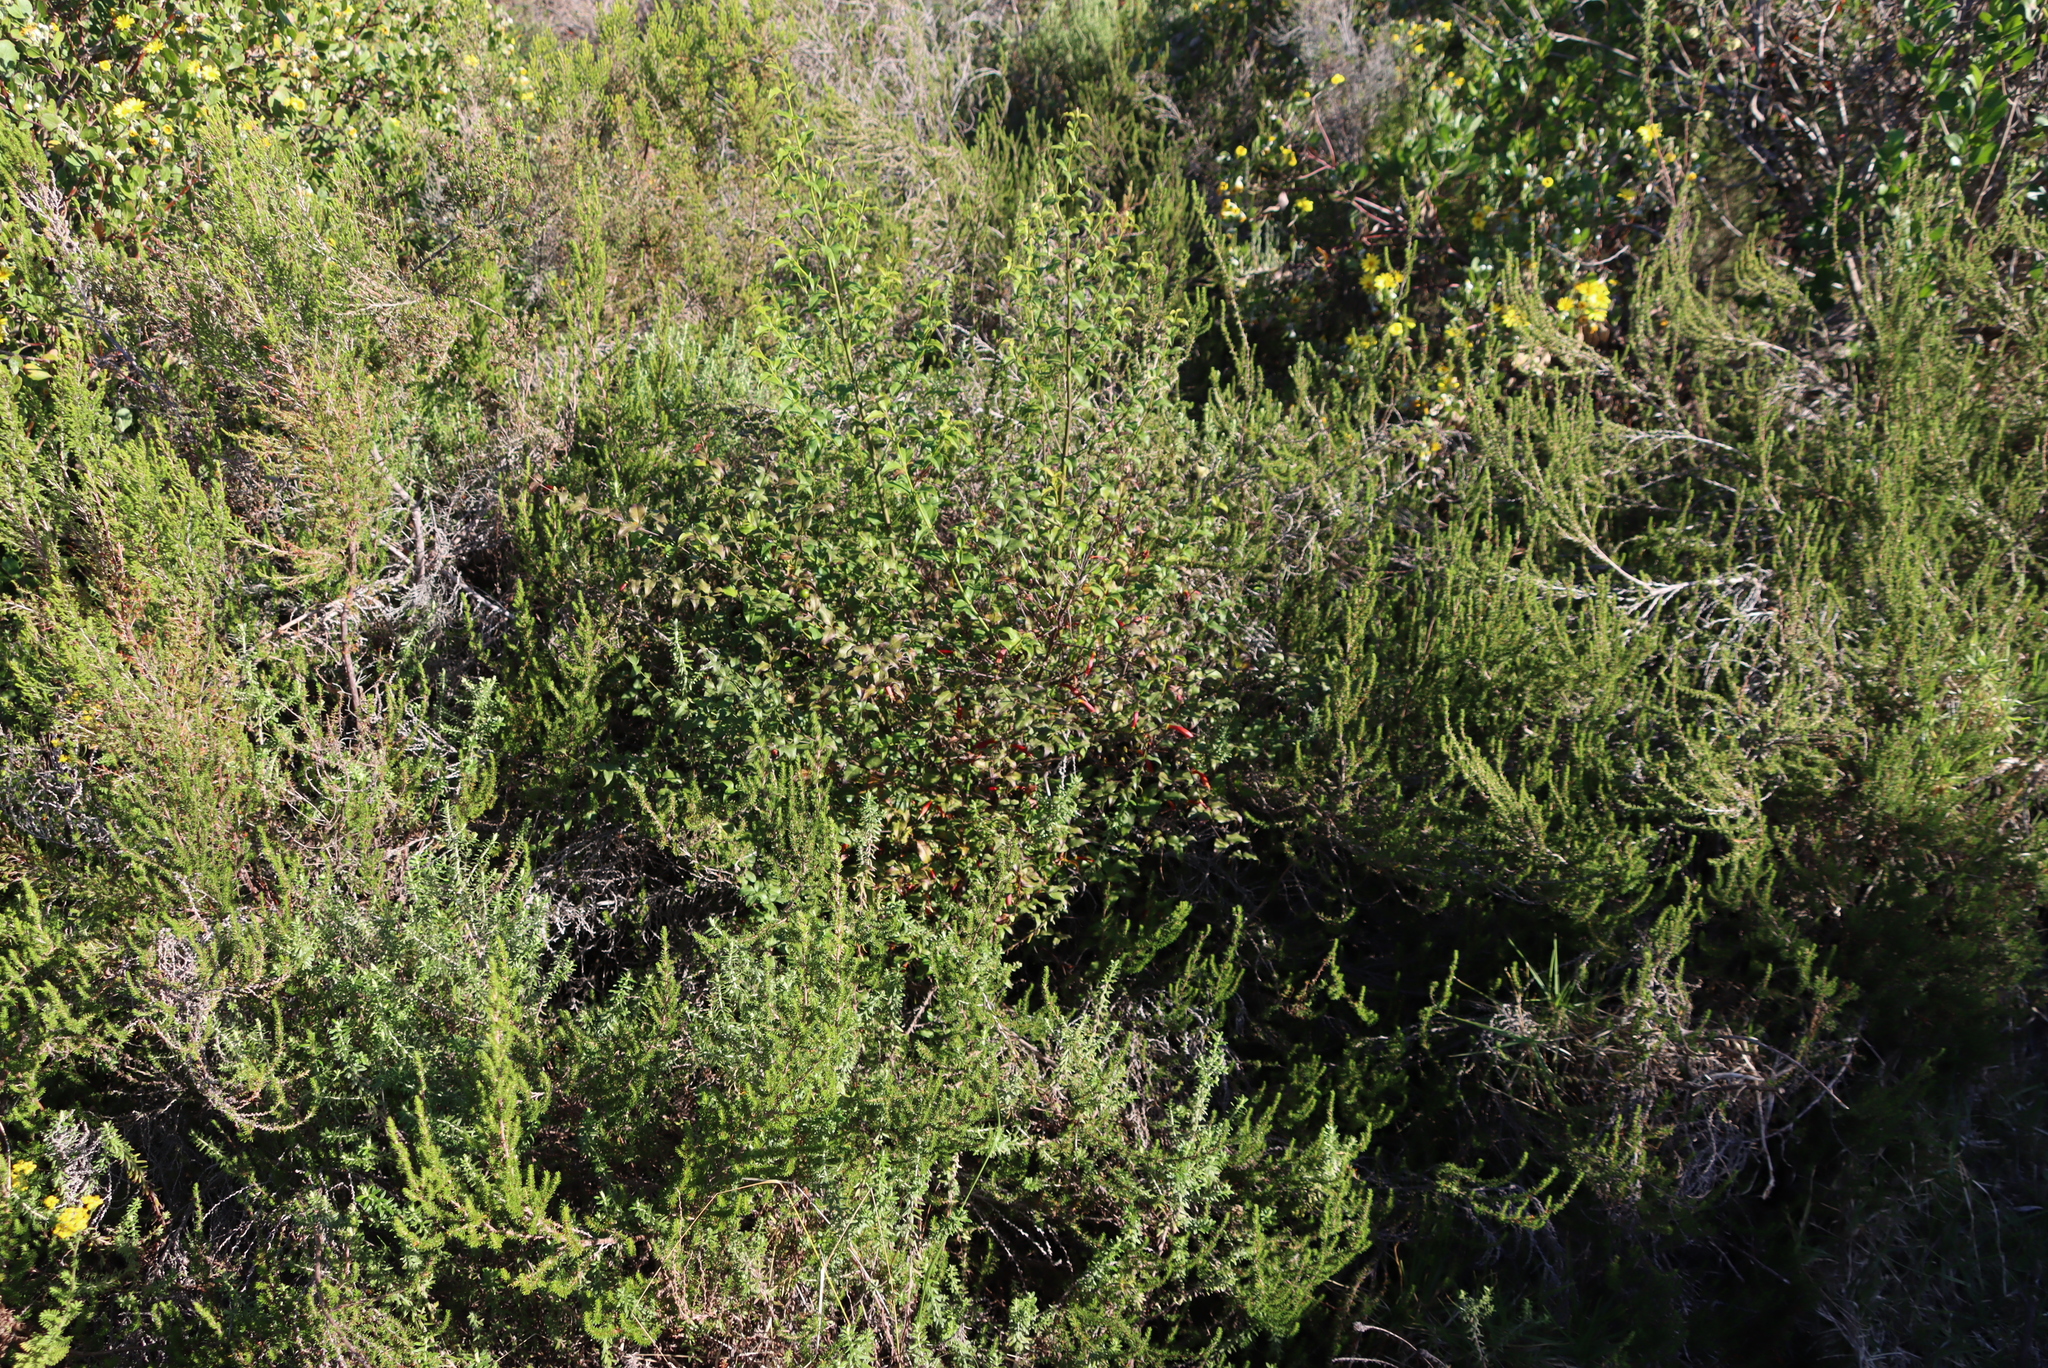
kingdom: Plantae
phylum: Tracheophyta
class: Magnoliopsida
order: Lamiales
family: Stilbaceae
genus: Halleria
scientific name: Halleria lucida
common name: Tree fuschia
